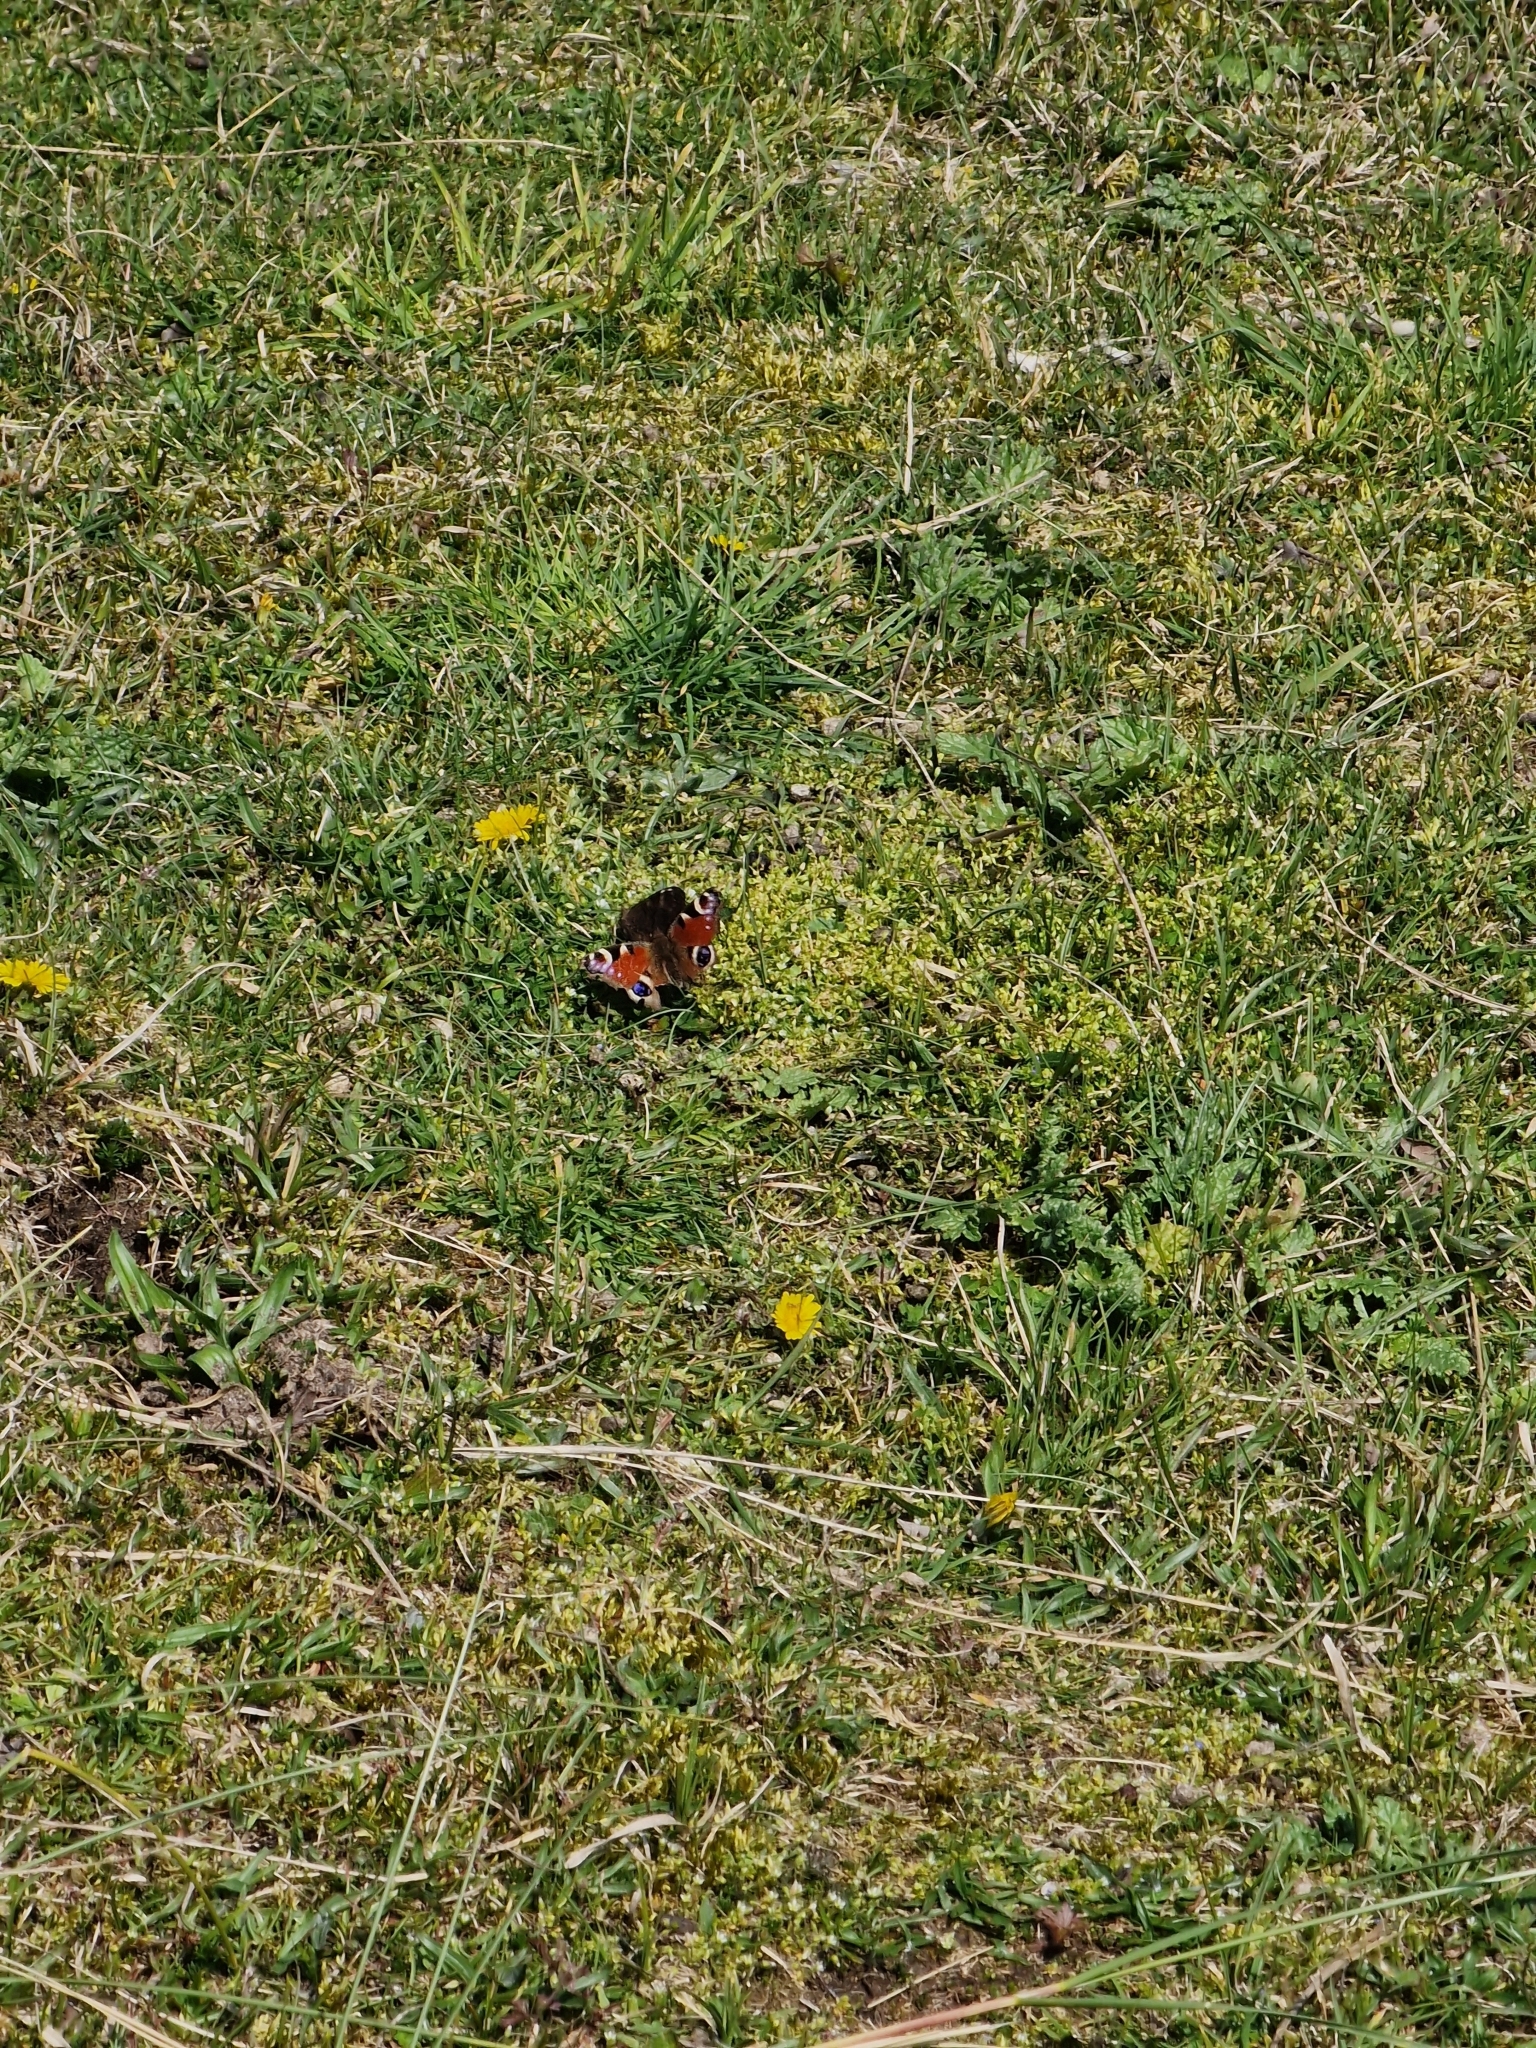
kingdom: Animalia
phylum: Arthropoda
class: Insecta
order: Lepidoptera
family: Nymphalidae
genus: Aglais
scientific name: Aglais io
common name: Peacock
